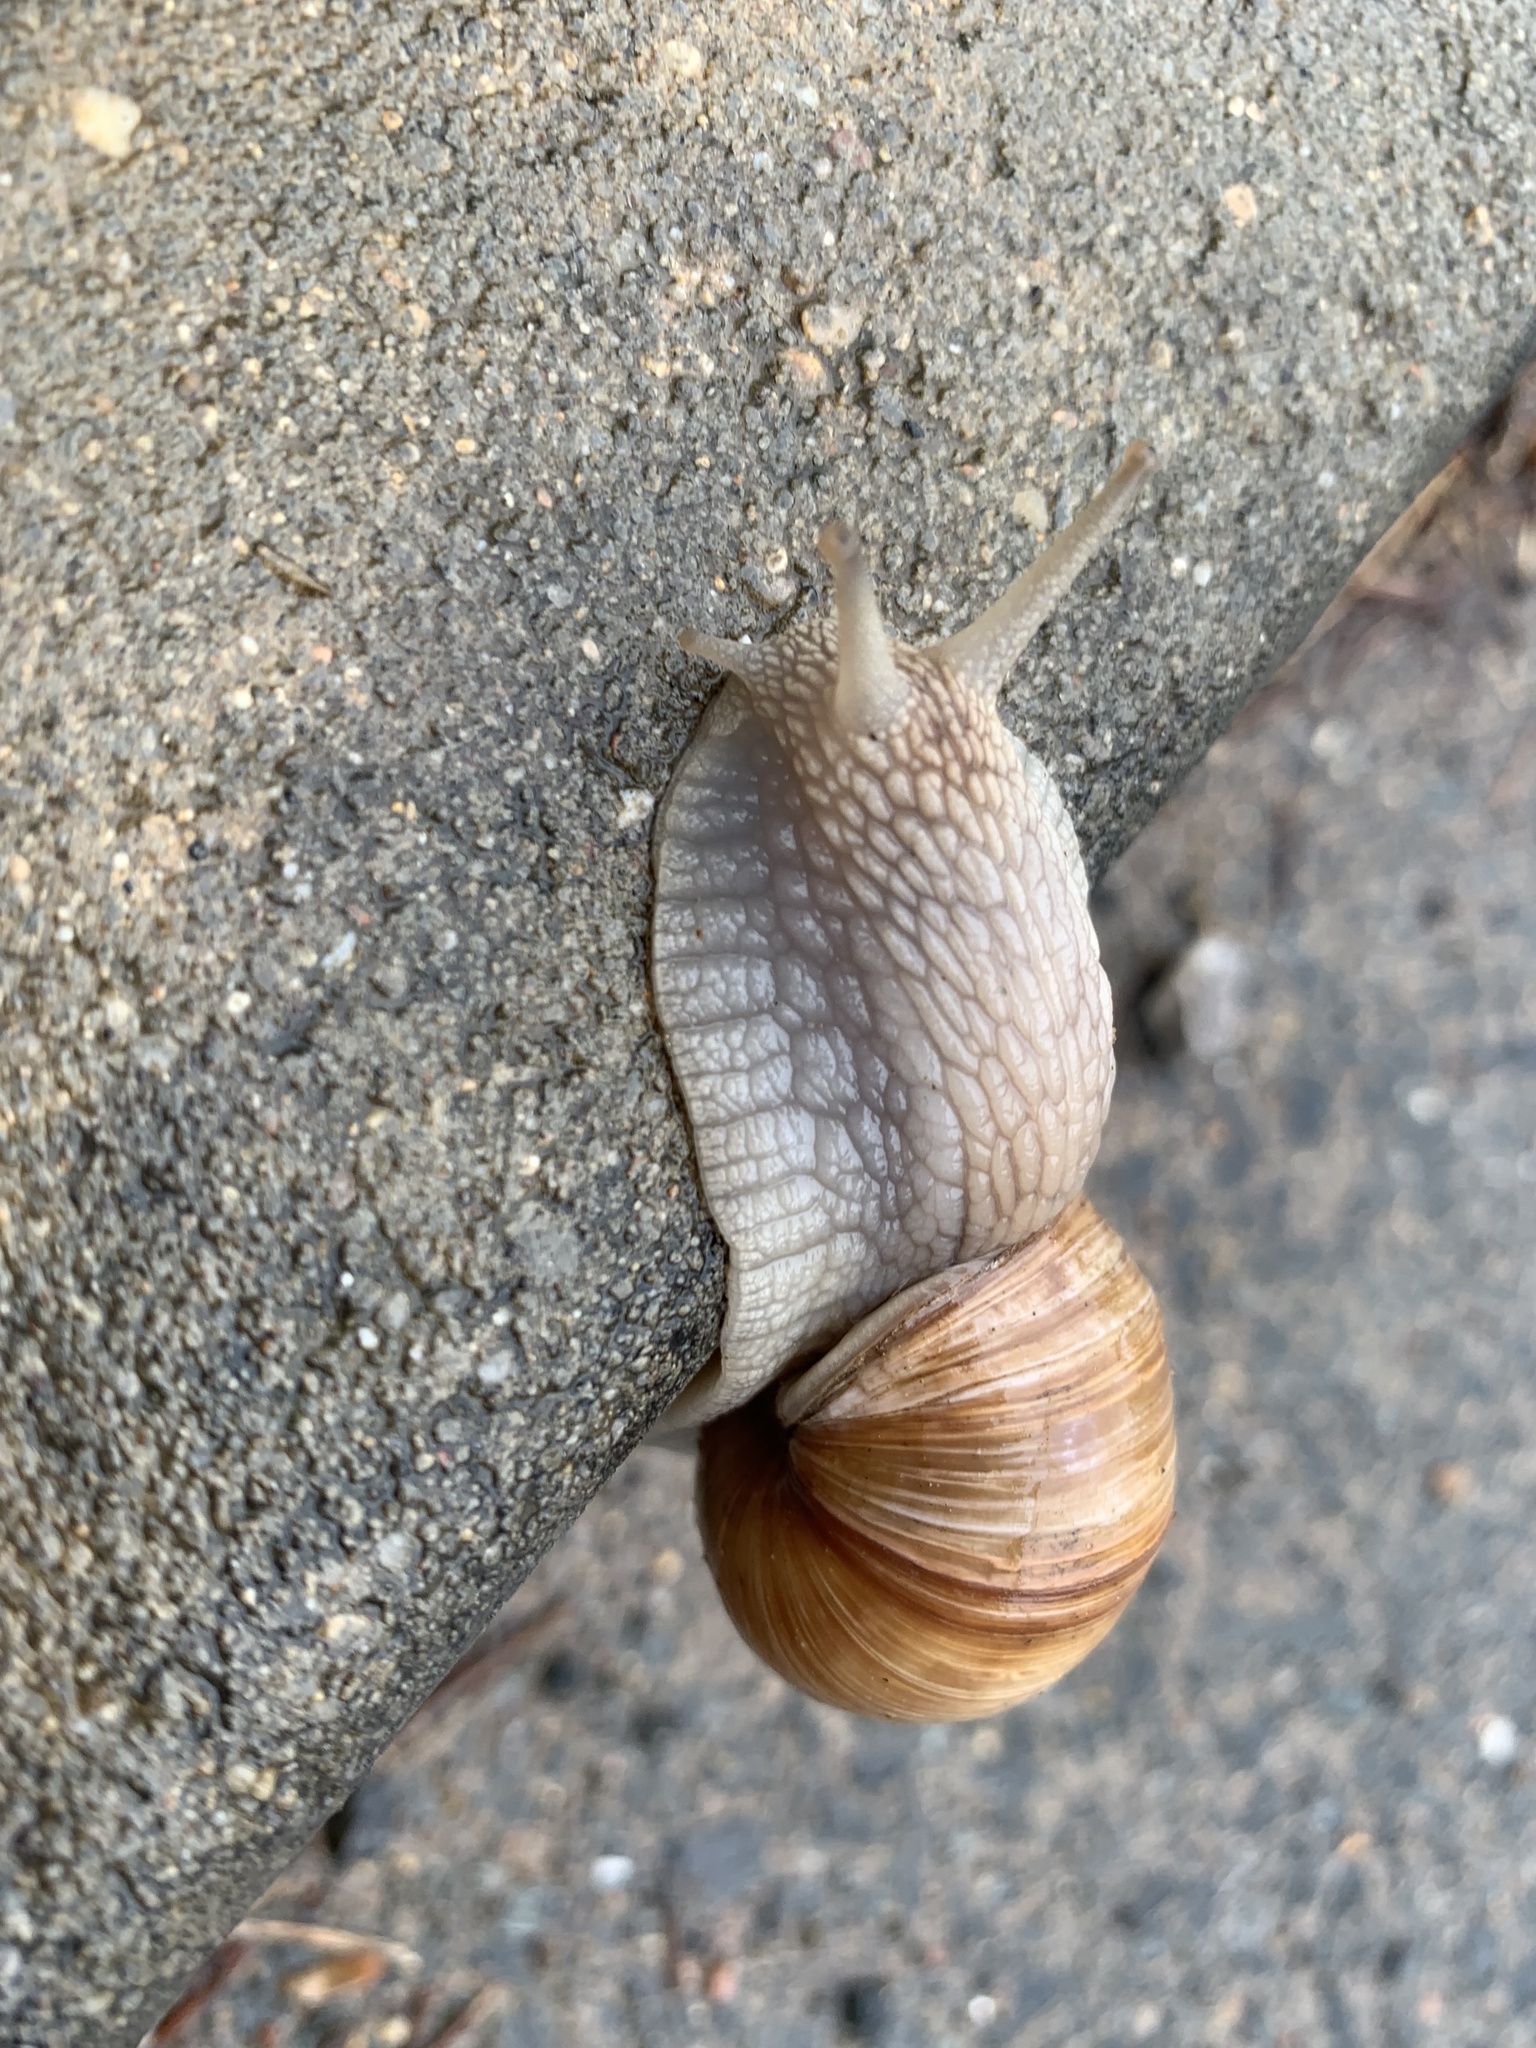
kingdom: Animalia
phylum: Mollusca
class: Gastropoda
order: Stylommatophora
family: Helicidae
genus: Helix
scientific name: Helix pomatia
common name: Roman snail
